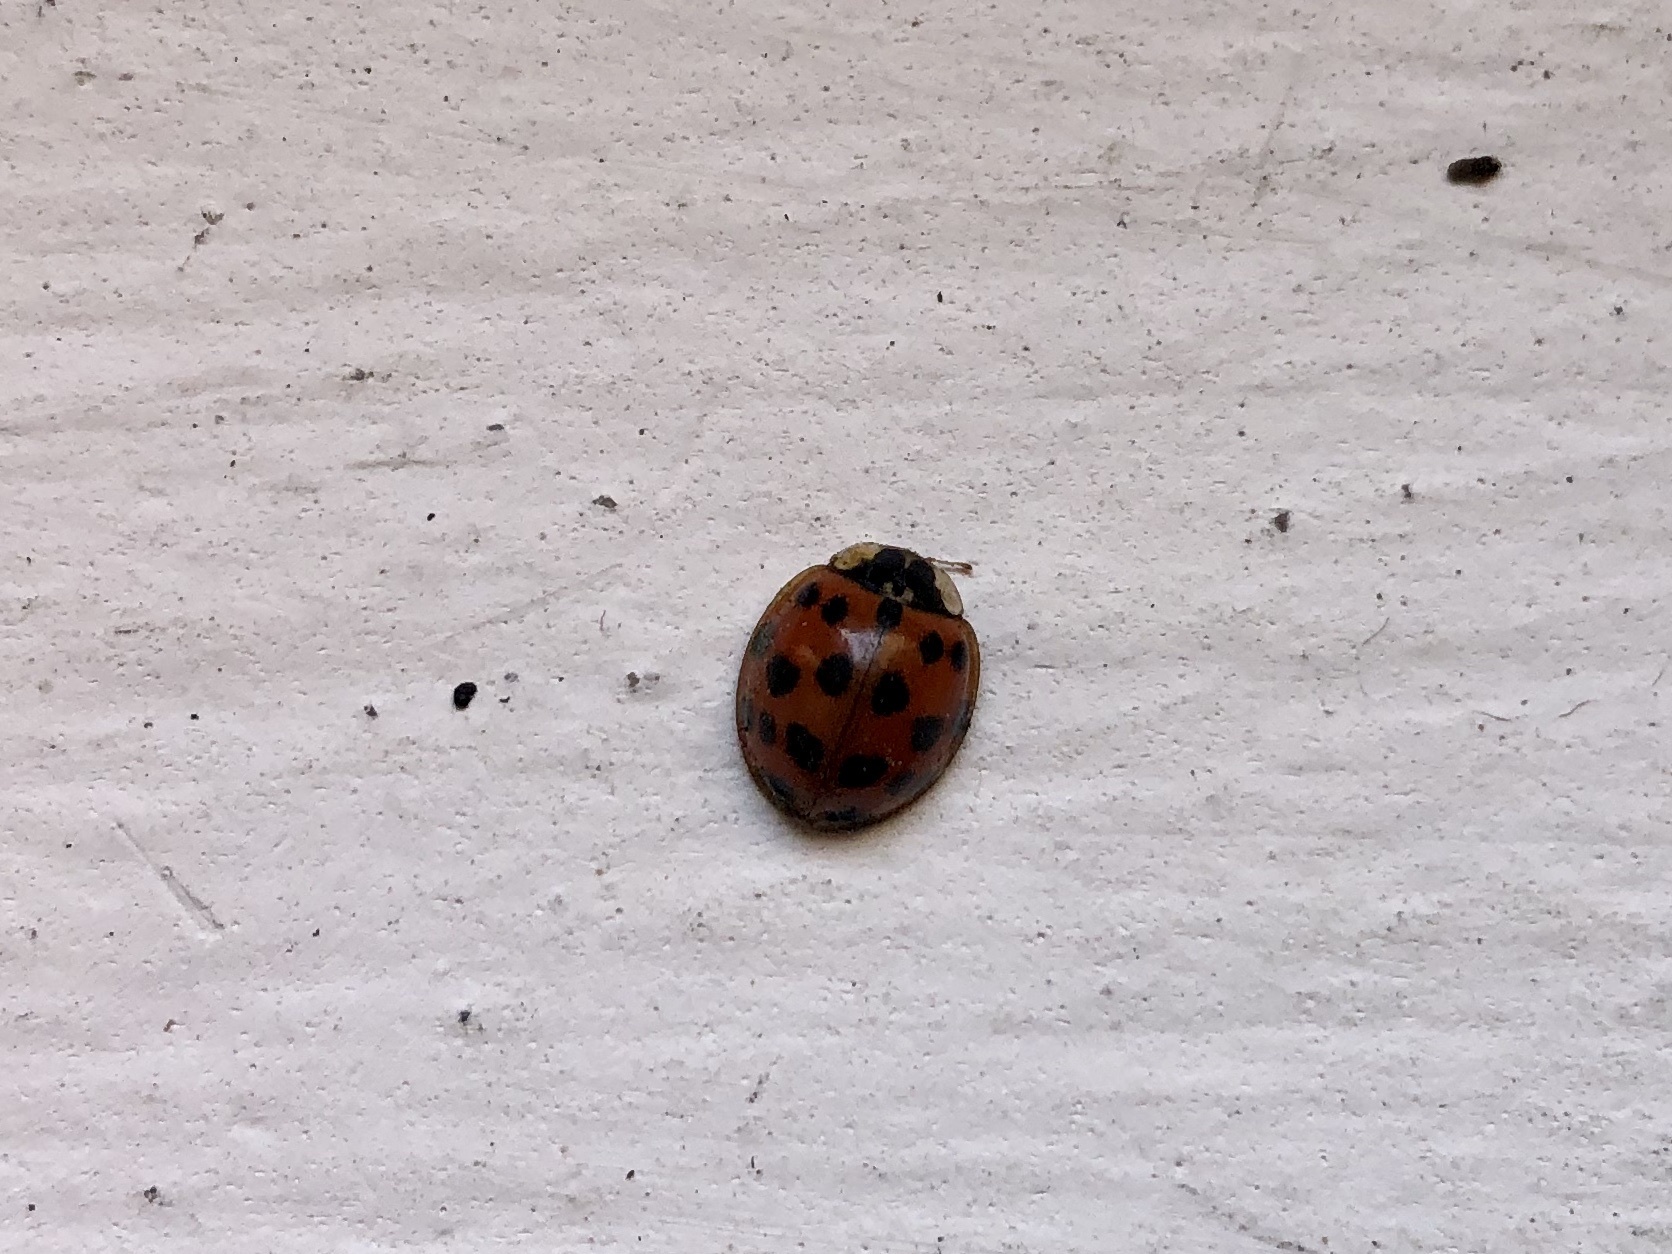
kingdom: Animalia
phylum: Arthropoda
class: Insecta
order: Coleoptera
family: Coccinellidae
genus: Harmonia
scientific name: Harmonia axyridis
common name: Harlequin ladybird
